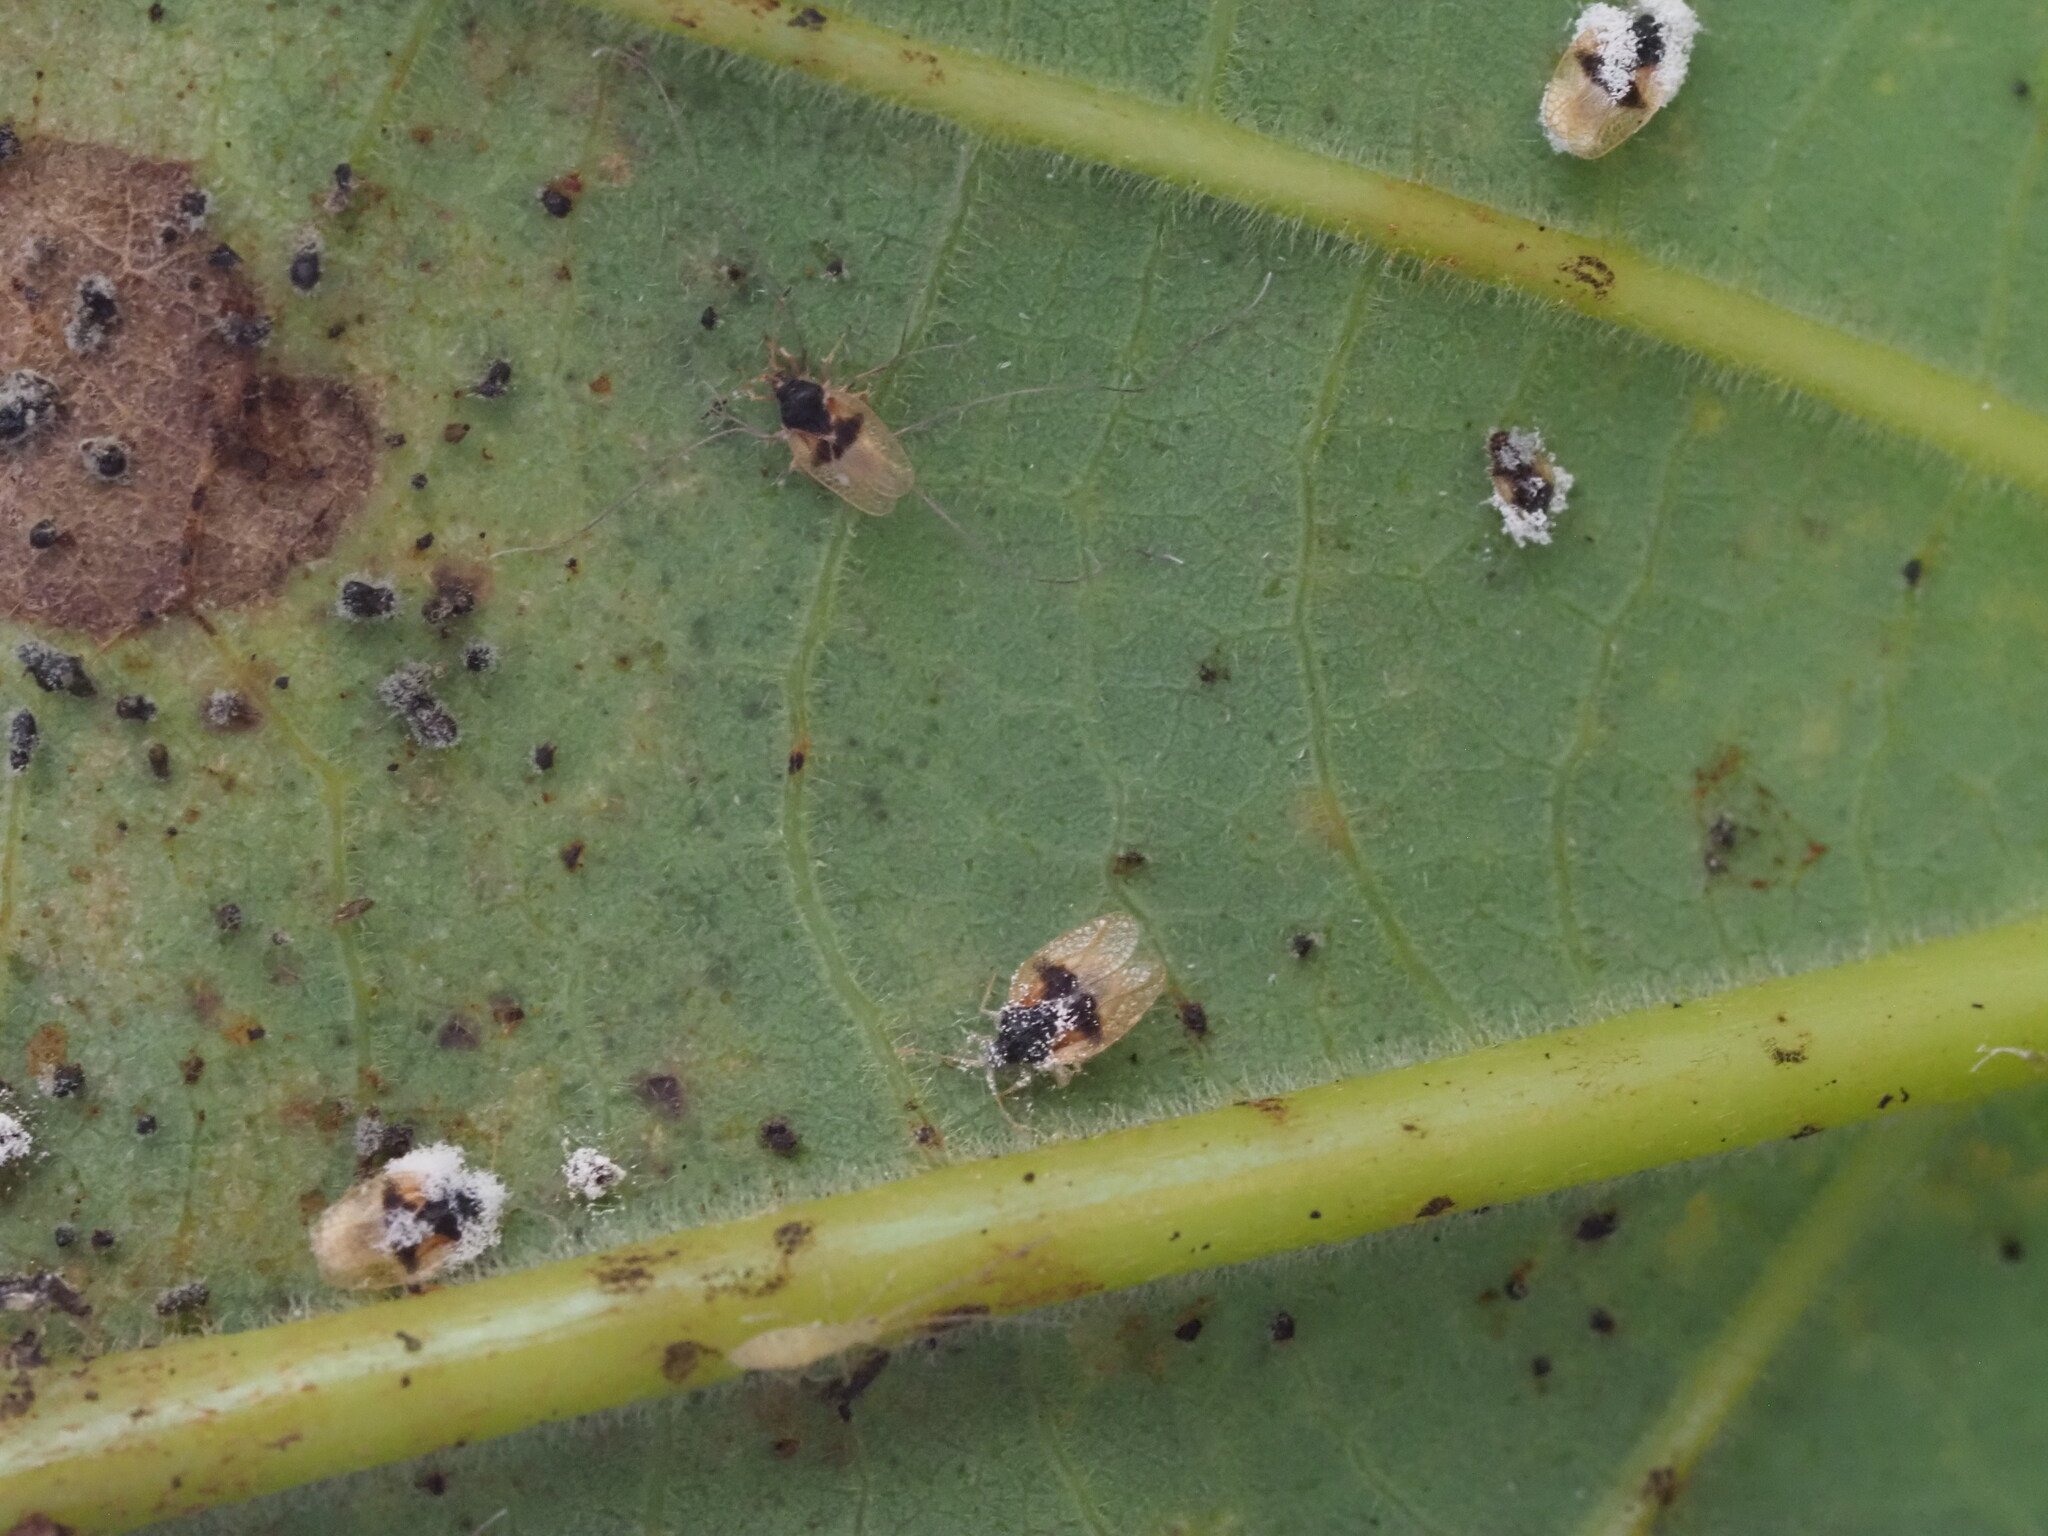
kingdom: Animalia
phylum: Arthropoda
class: Insecta
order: Hemiptera
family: Tingidae
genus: Pseudacysta
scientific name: Pseudacysta perseae
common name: Avocado lace bug
